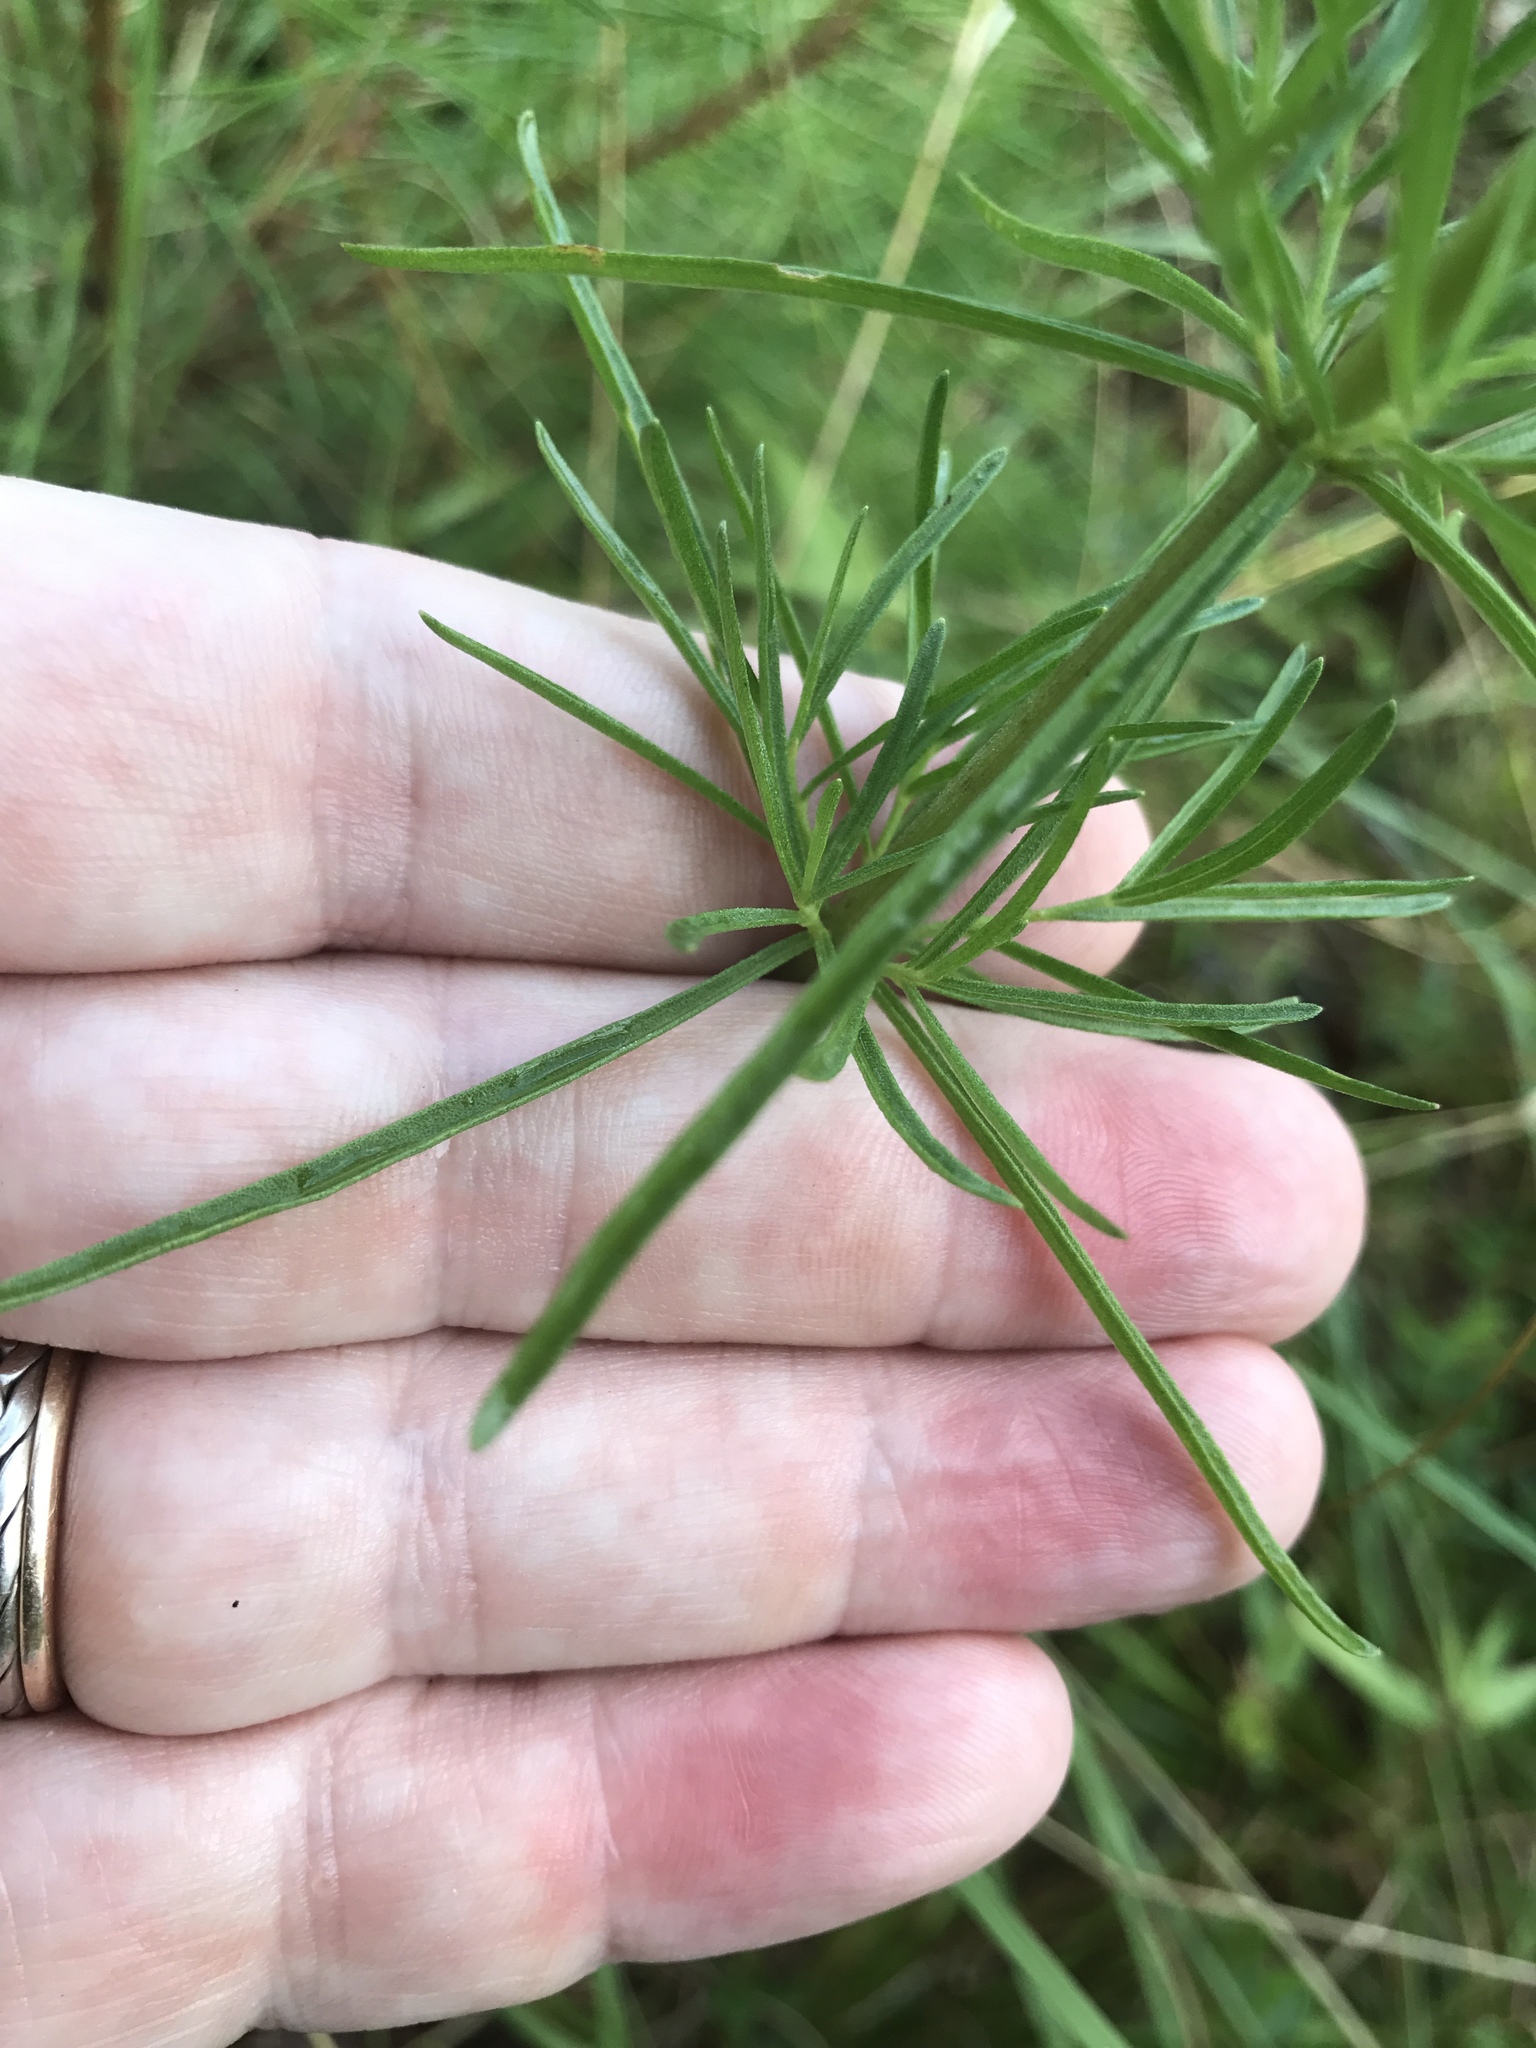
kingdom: Plantae
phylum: Tracheophyta
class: Magnoliopsida
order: Asterales
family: Asteraceae
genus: Eupatorium
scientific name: Eupatorium hyssopifolium
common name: Hyssop-leaf thoroughwort
